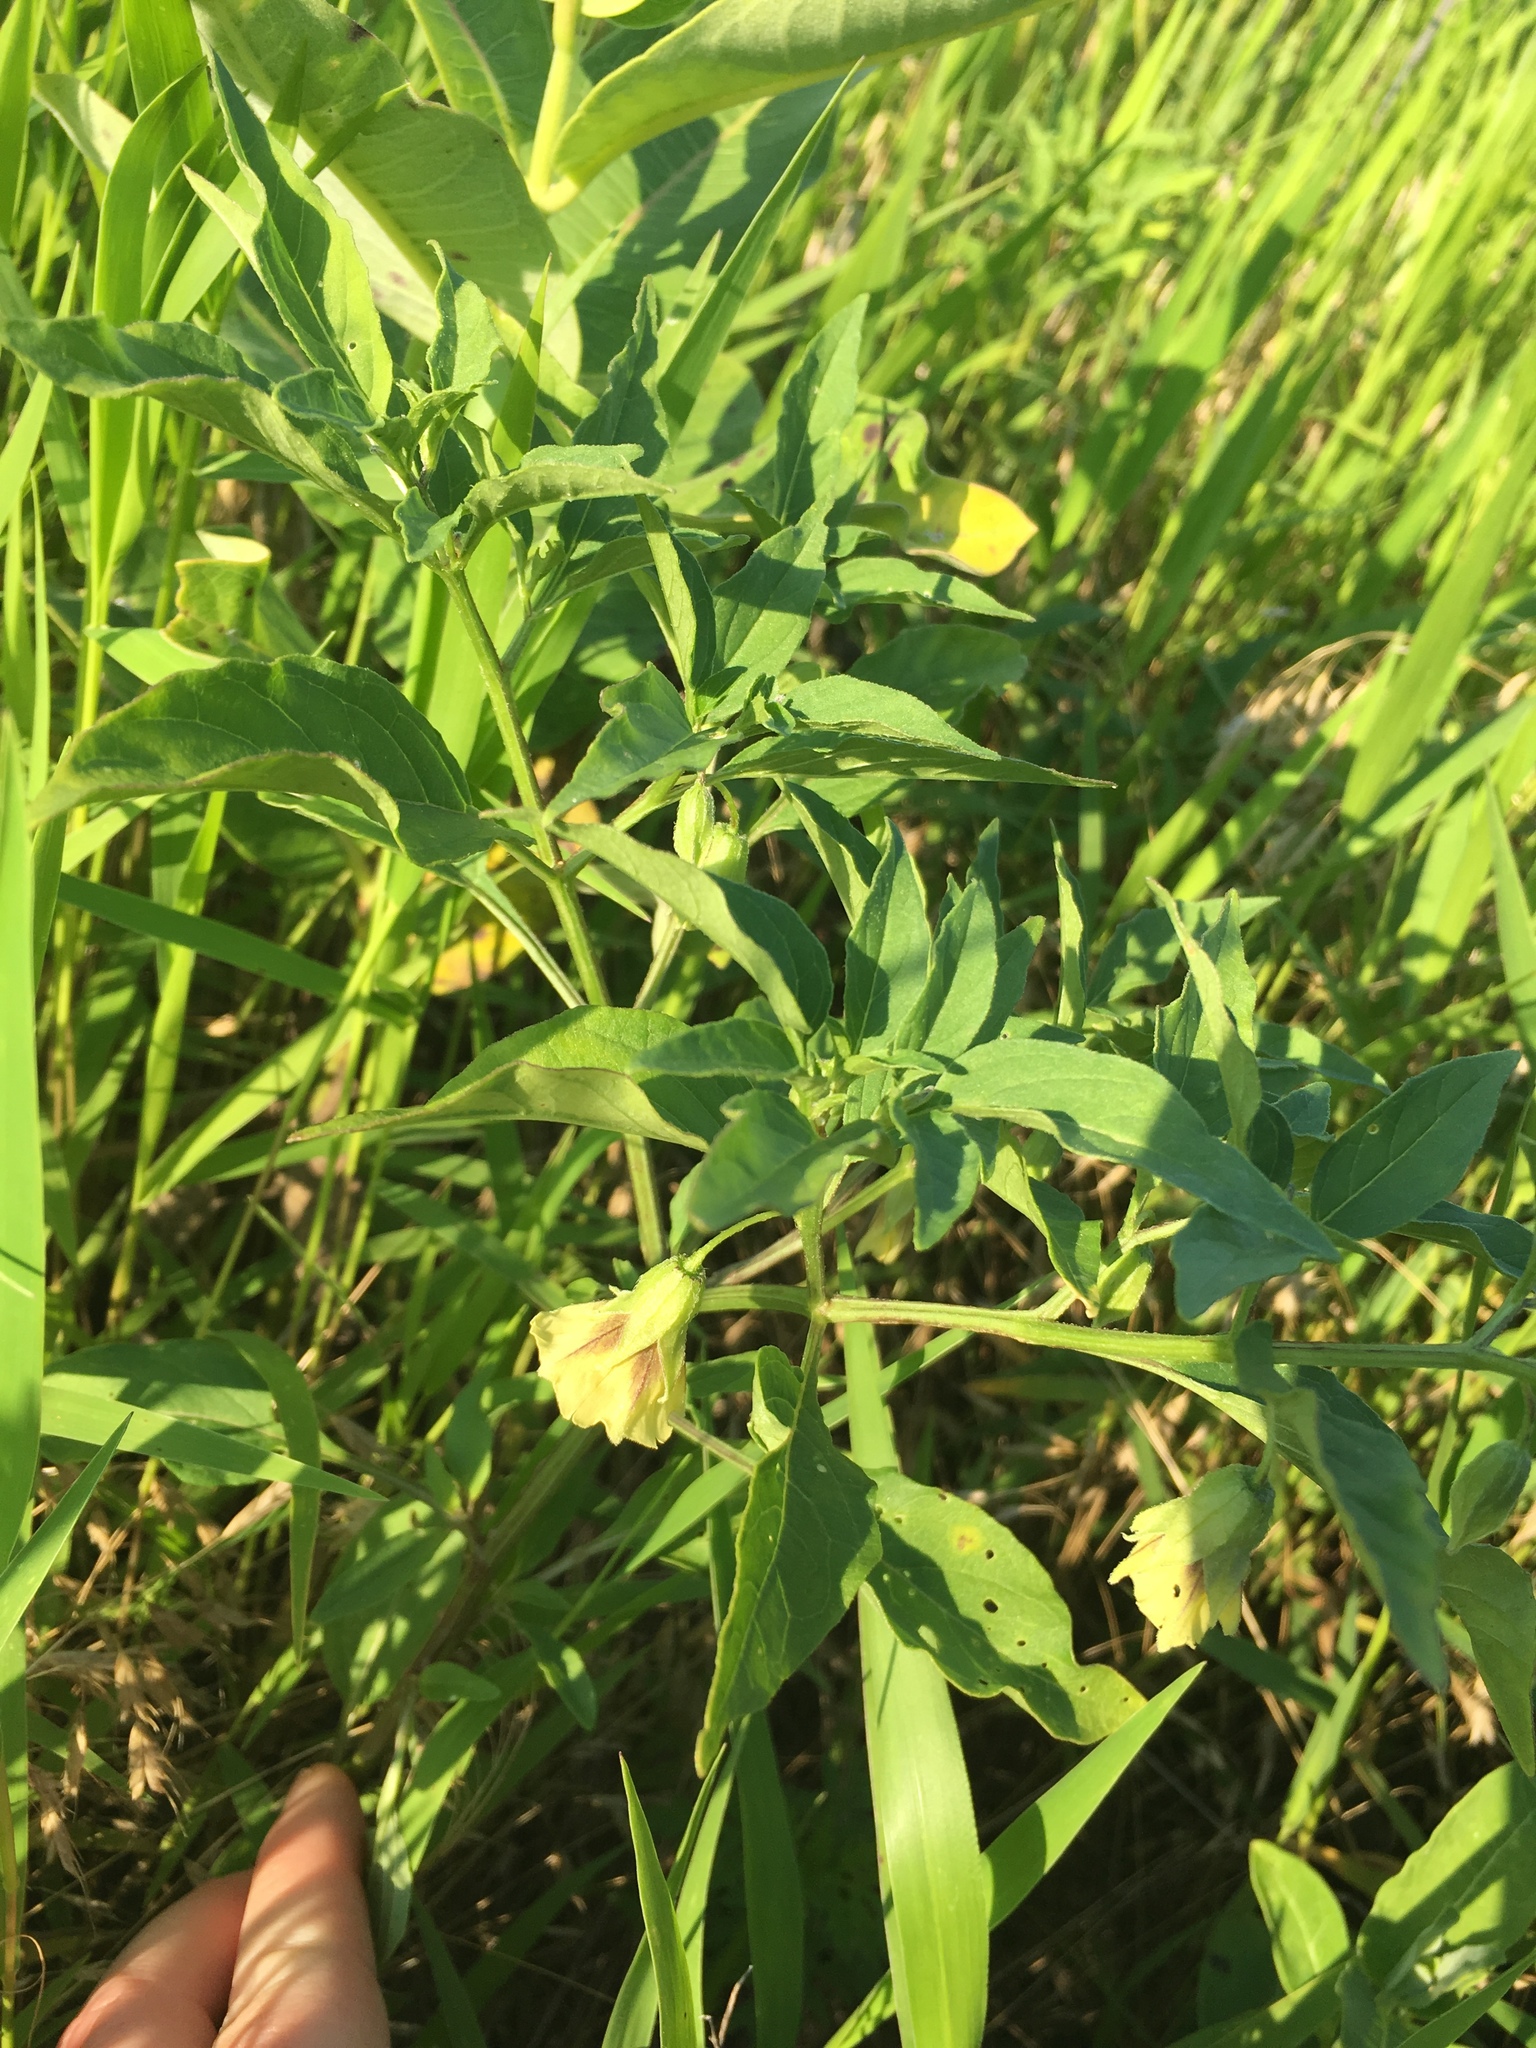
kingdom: Plantae
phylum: Tracheophyta
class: Magnoliopsida
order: Solanales
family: Solanaceae
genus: Physalis
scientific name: Physalis virginiana
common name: Virginia ground-cherry
